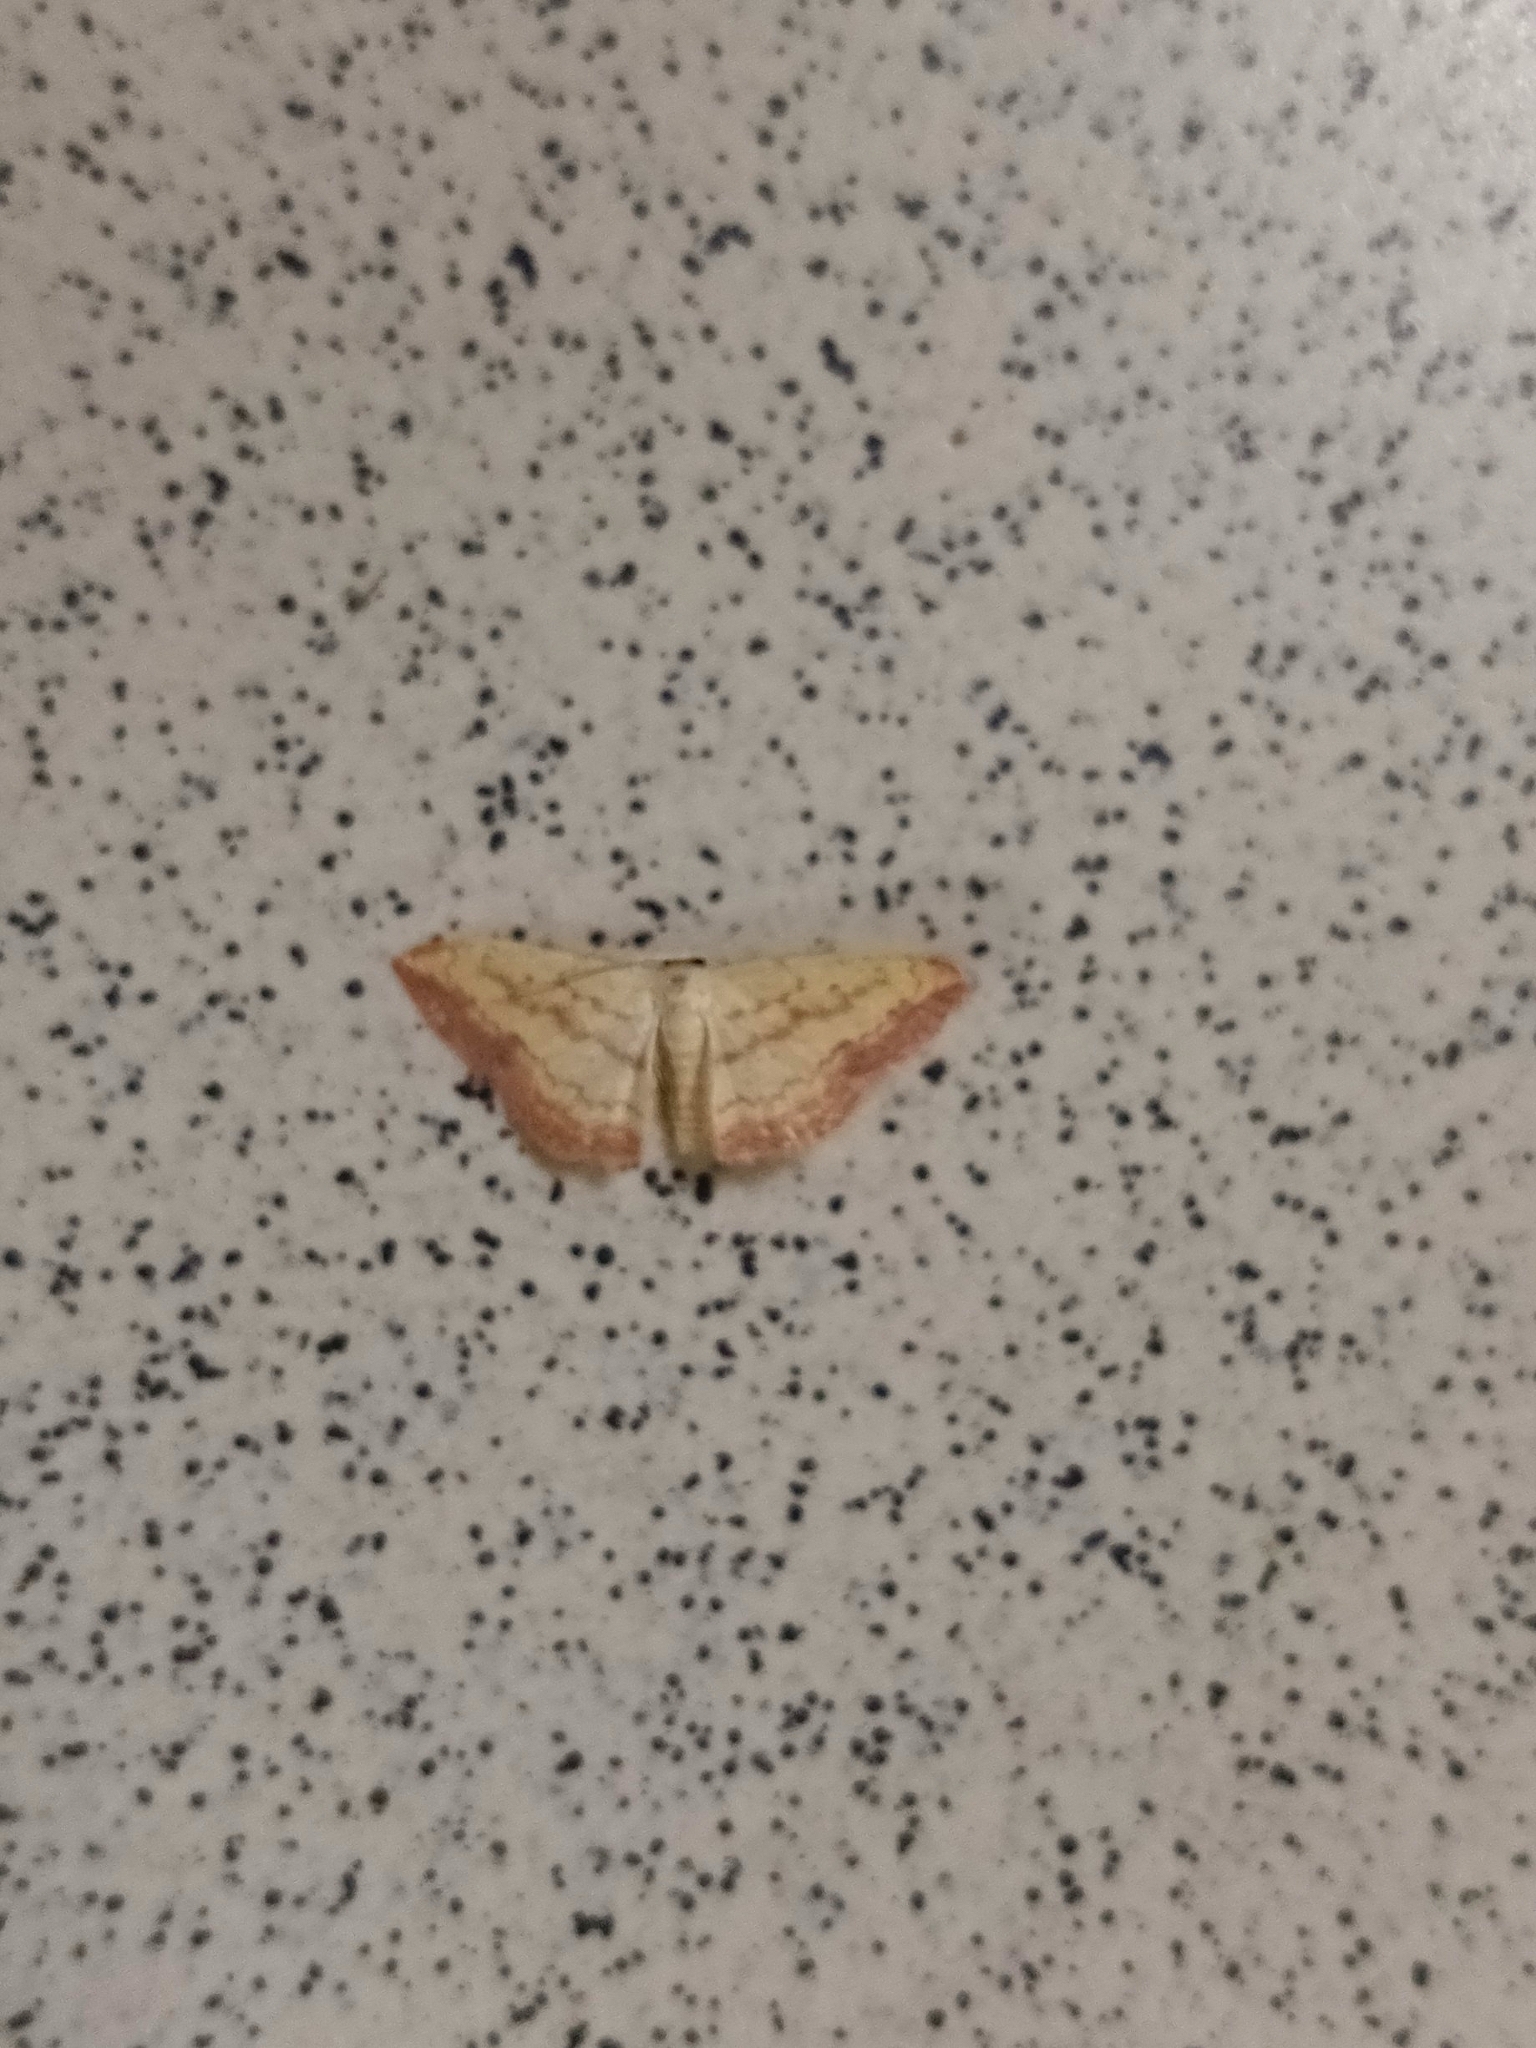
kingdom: Animalia
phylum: Arthropoda
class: Insecta
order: Lepidoptera
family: Geometridae
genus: Scopula
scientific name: Scopula caesaria
